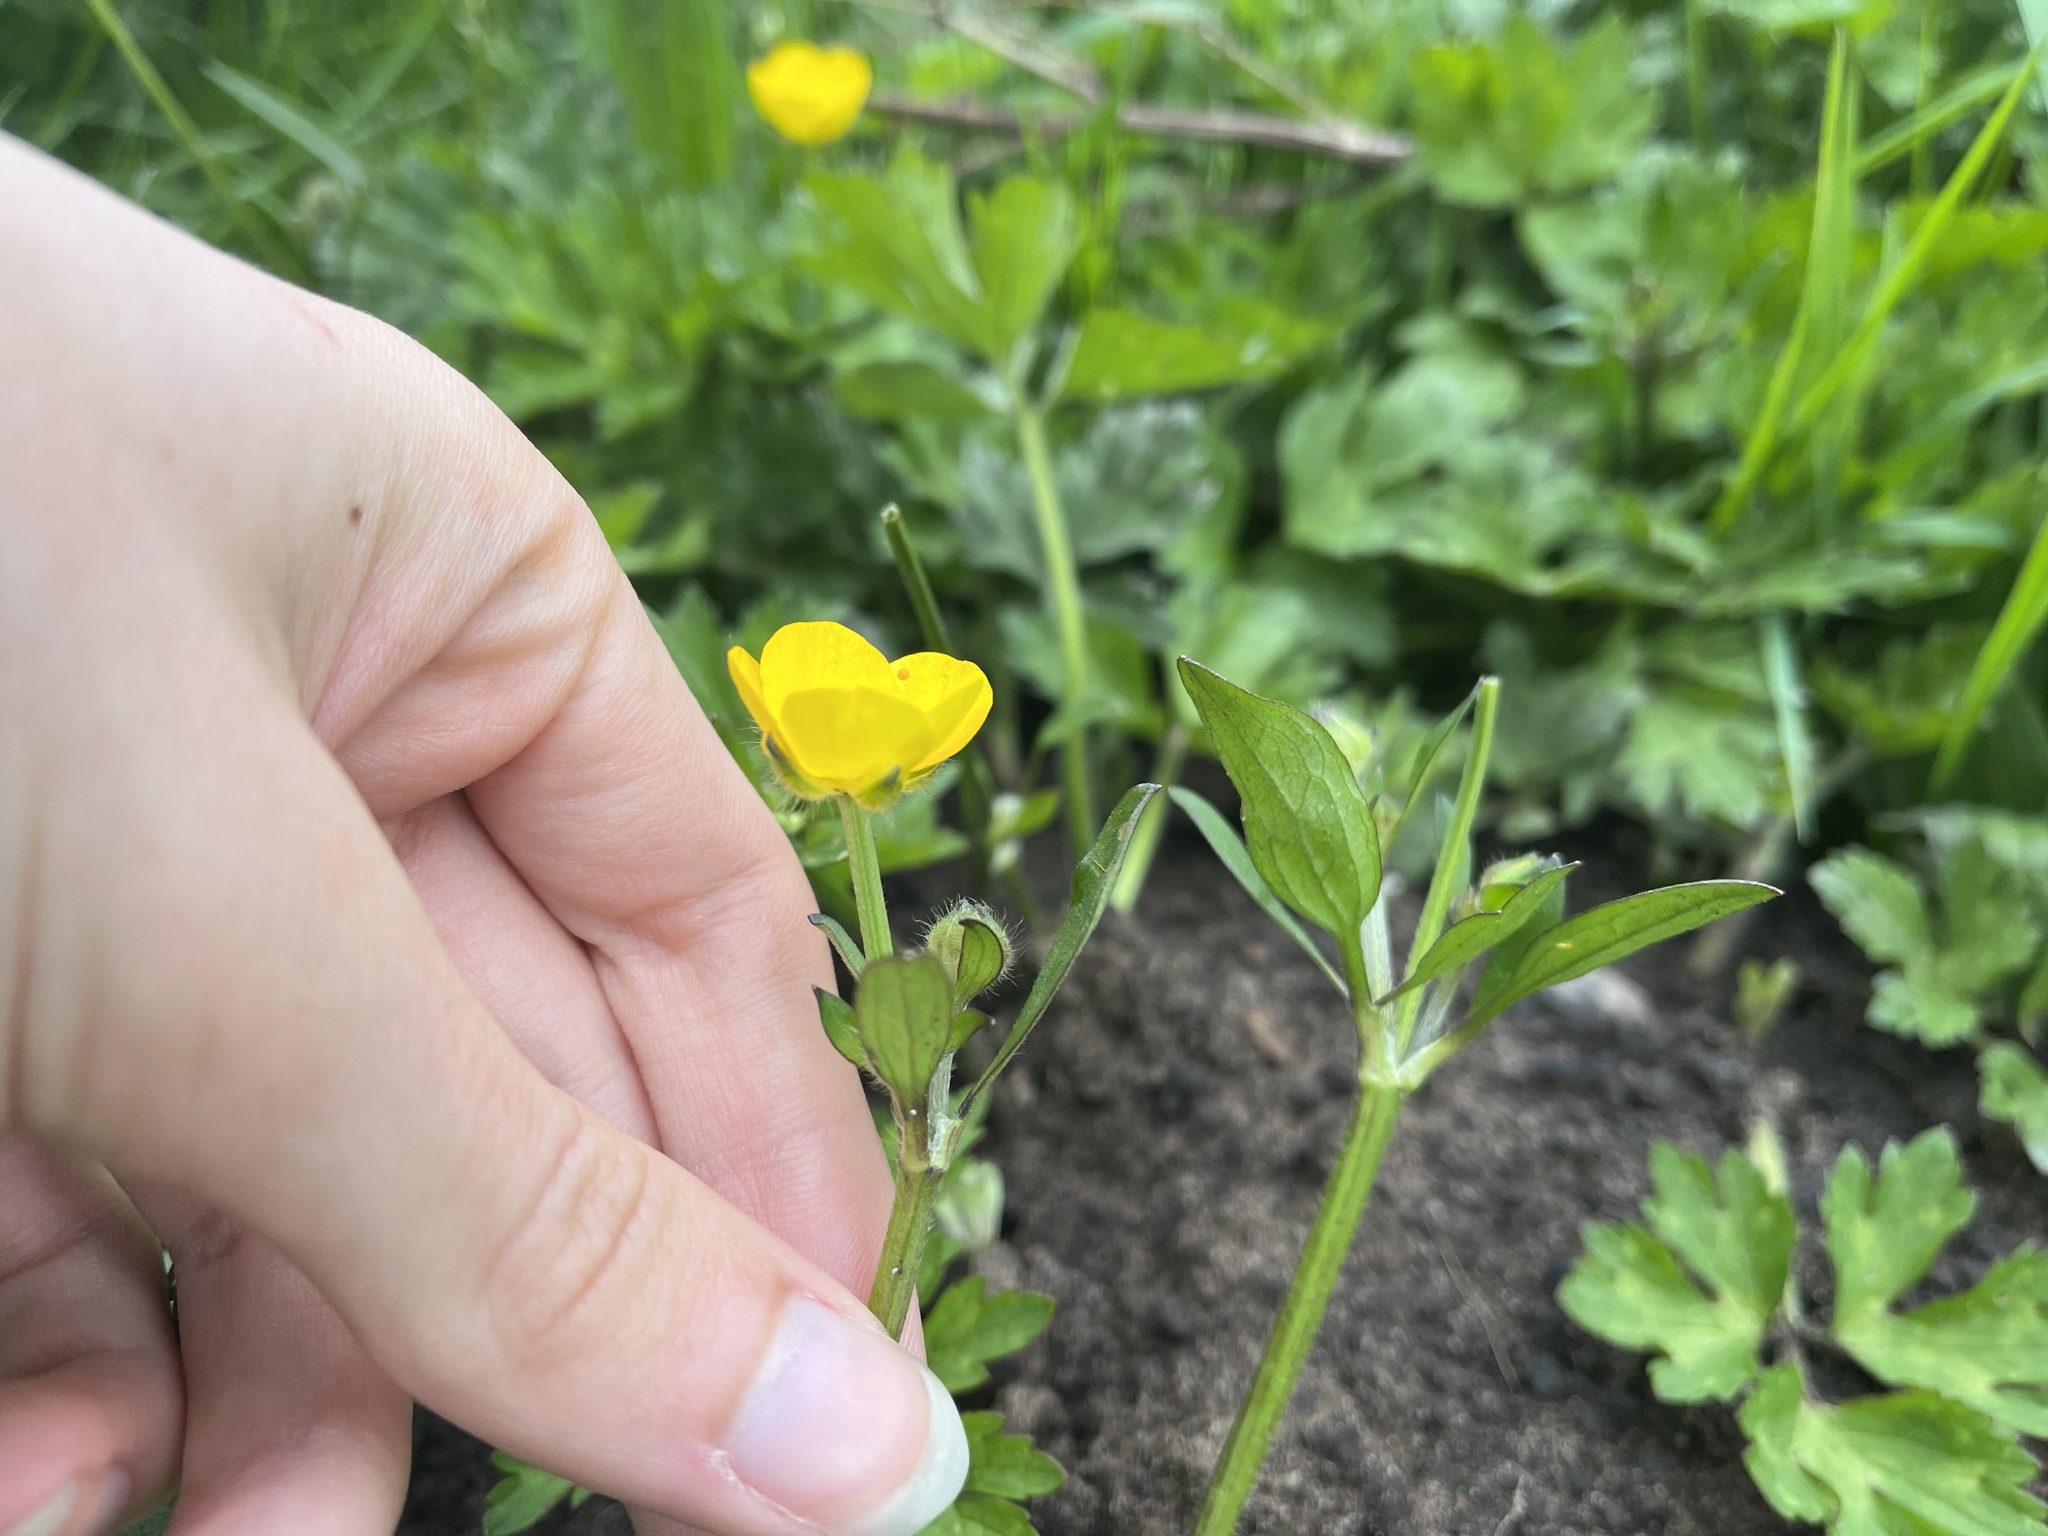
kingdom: Plantae
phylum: Tracheophyta
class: Magnoliopsida
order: Ranunculales
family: Ranunculaceae
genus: Ranunculus
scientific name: Ranunculus repens
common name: Creeping buttercup
